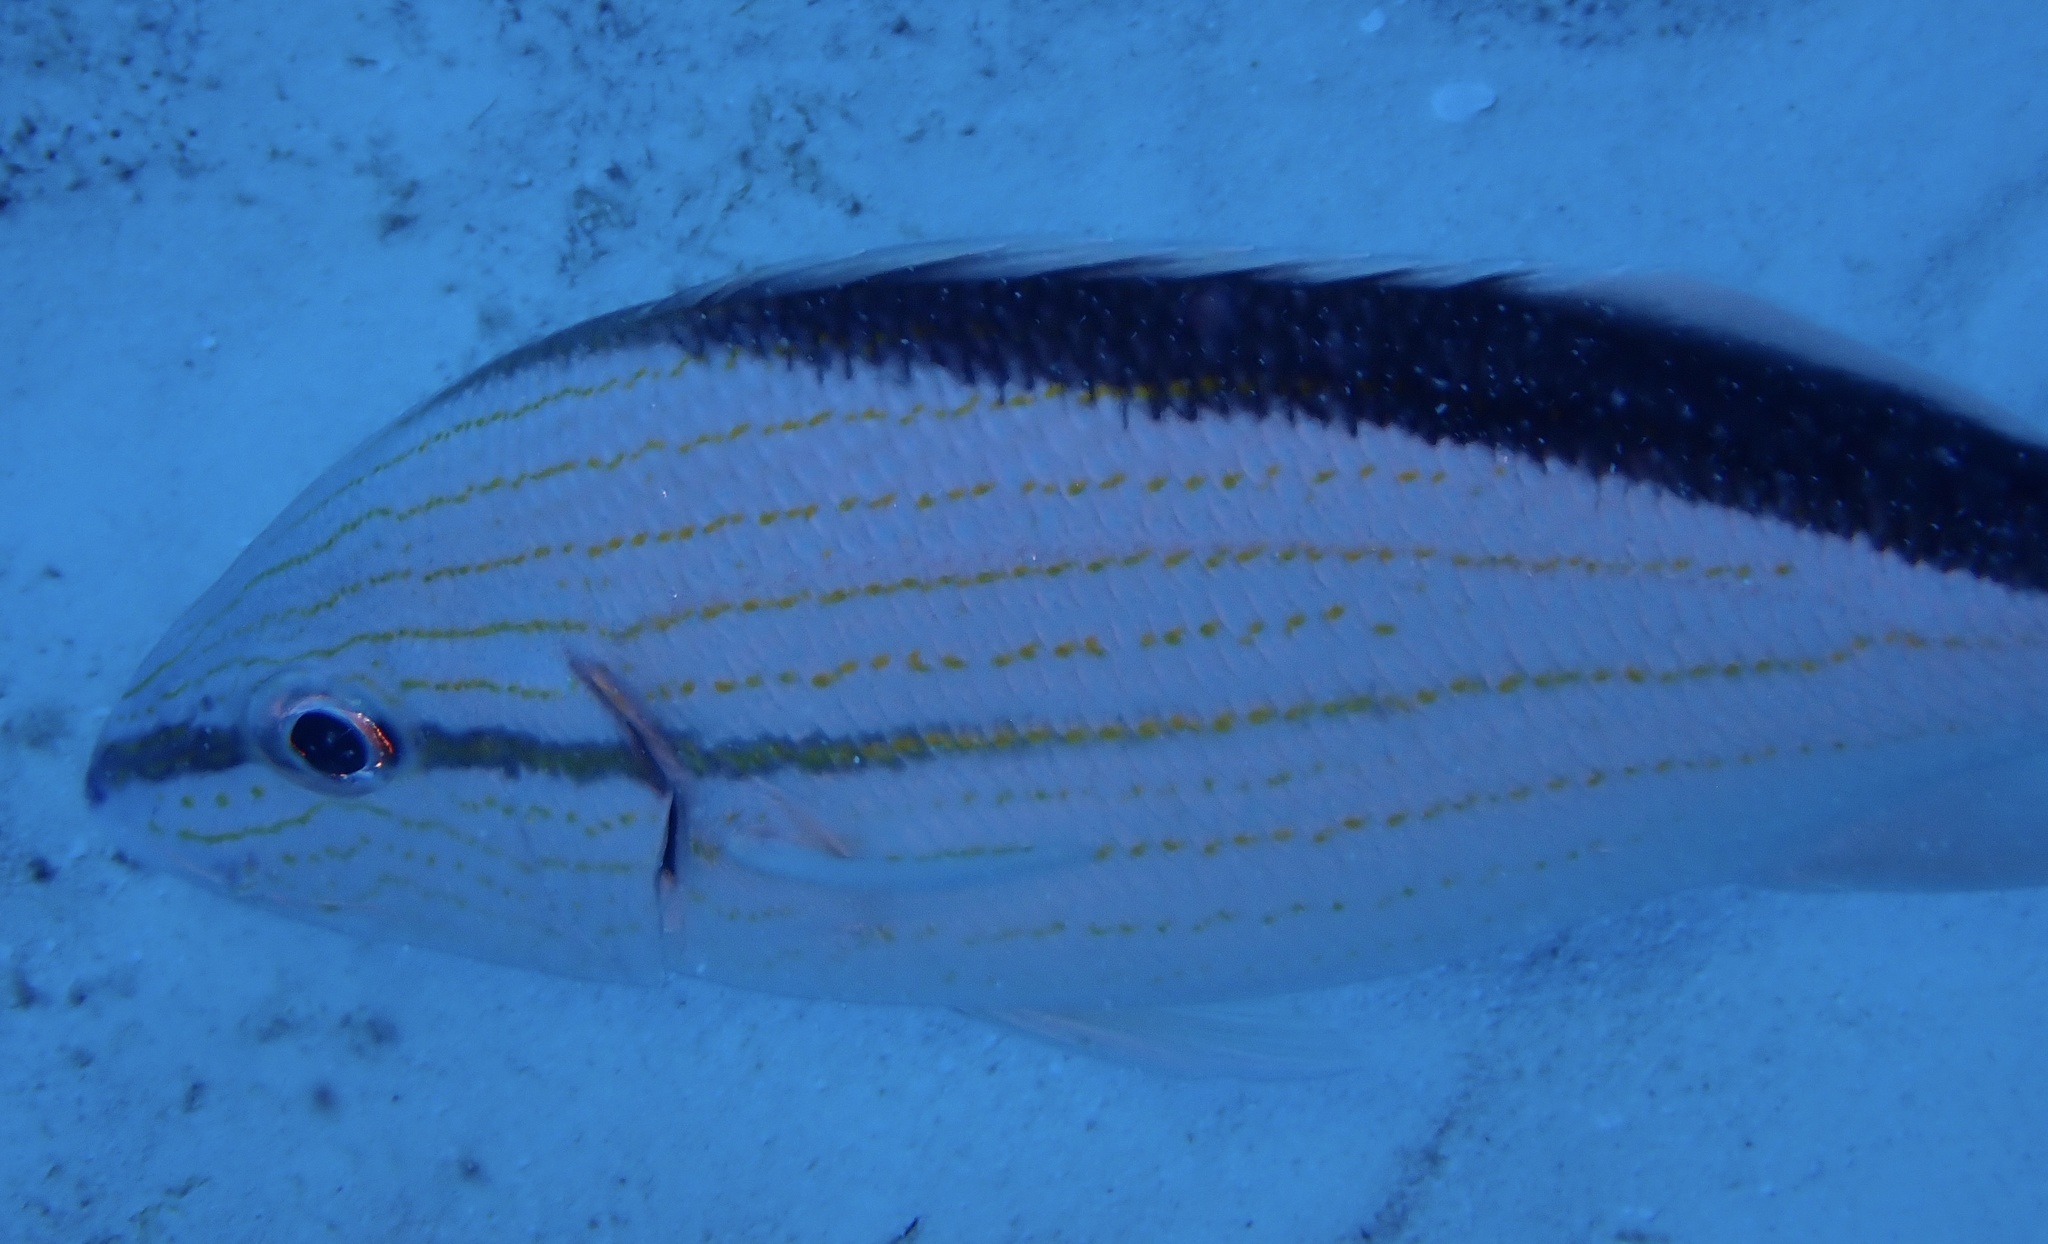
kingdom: Animalia
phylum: Chordata
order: Perciformes
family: Haemulidae
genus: Haemulon
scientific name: Haemulon melanurum
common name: Cottonwick
